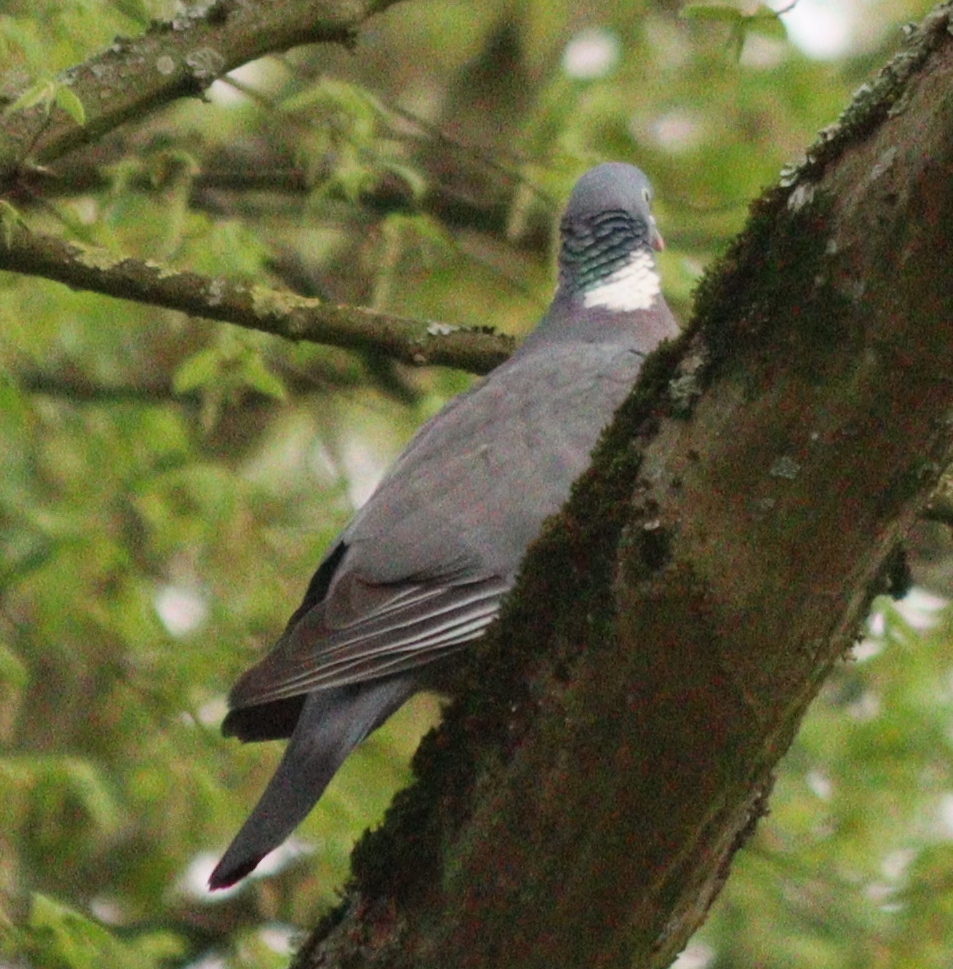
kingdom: Animalia
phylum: Chordata
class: Aves
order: Columbiformes
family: Columbidae
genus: Columba
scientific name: Columba palumbus
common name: Common wood pigeon
